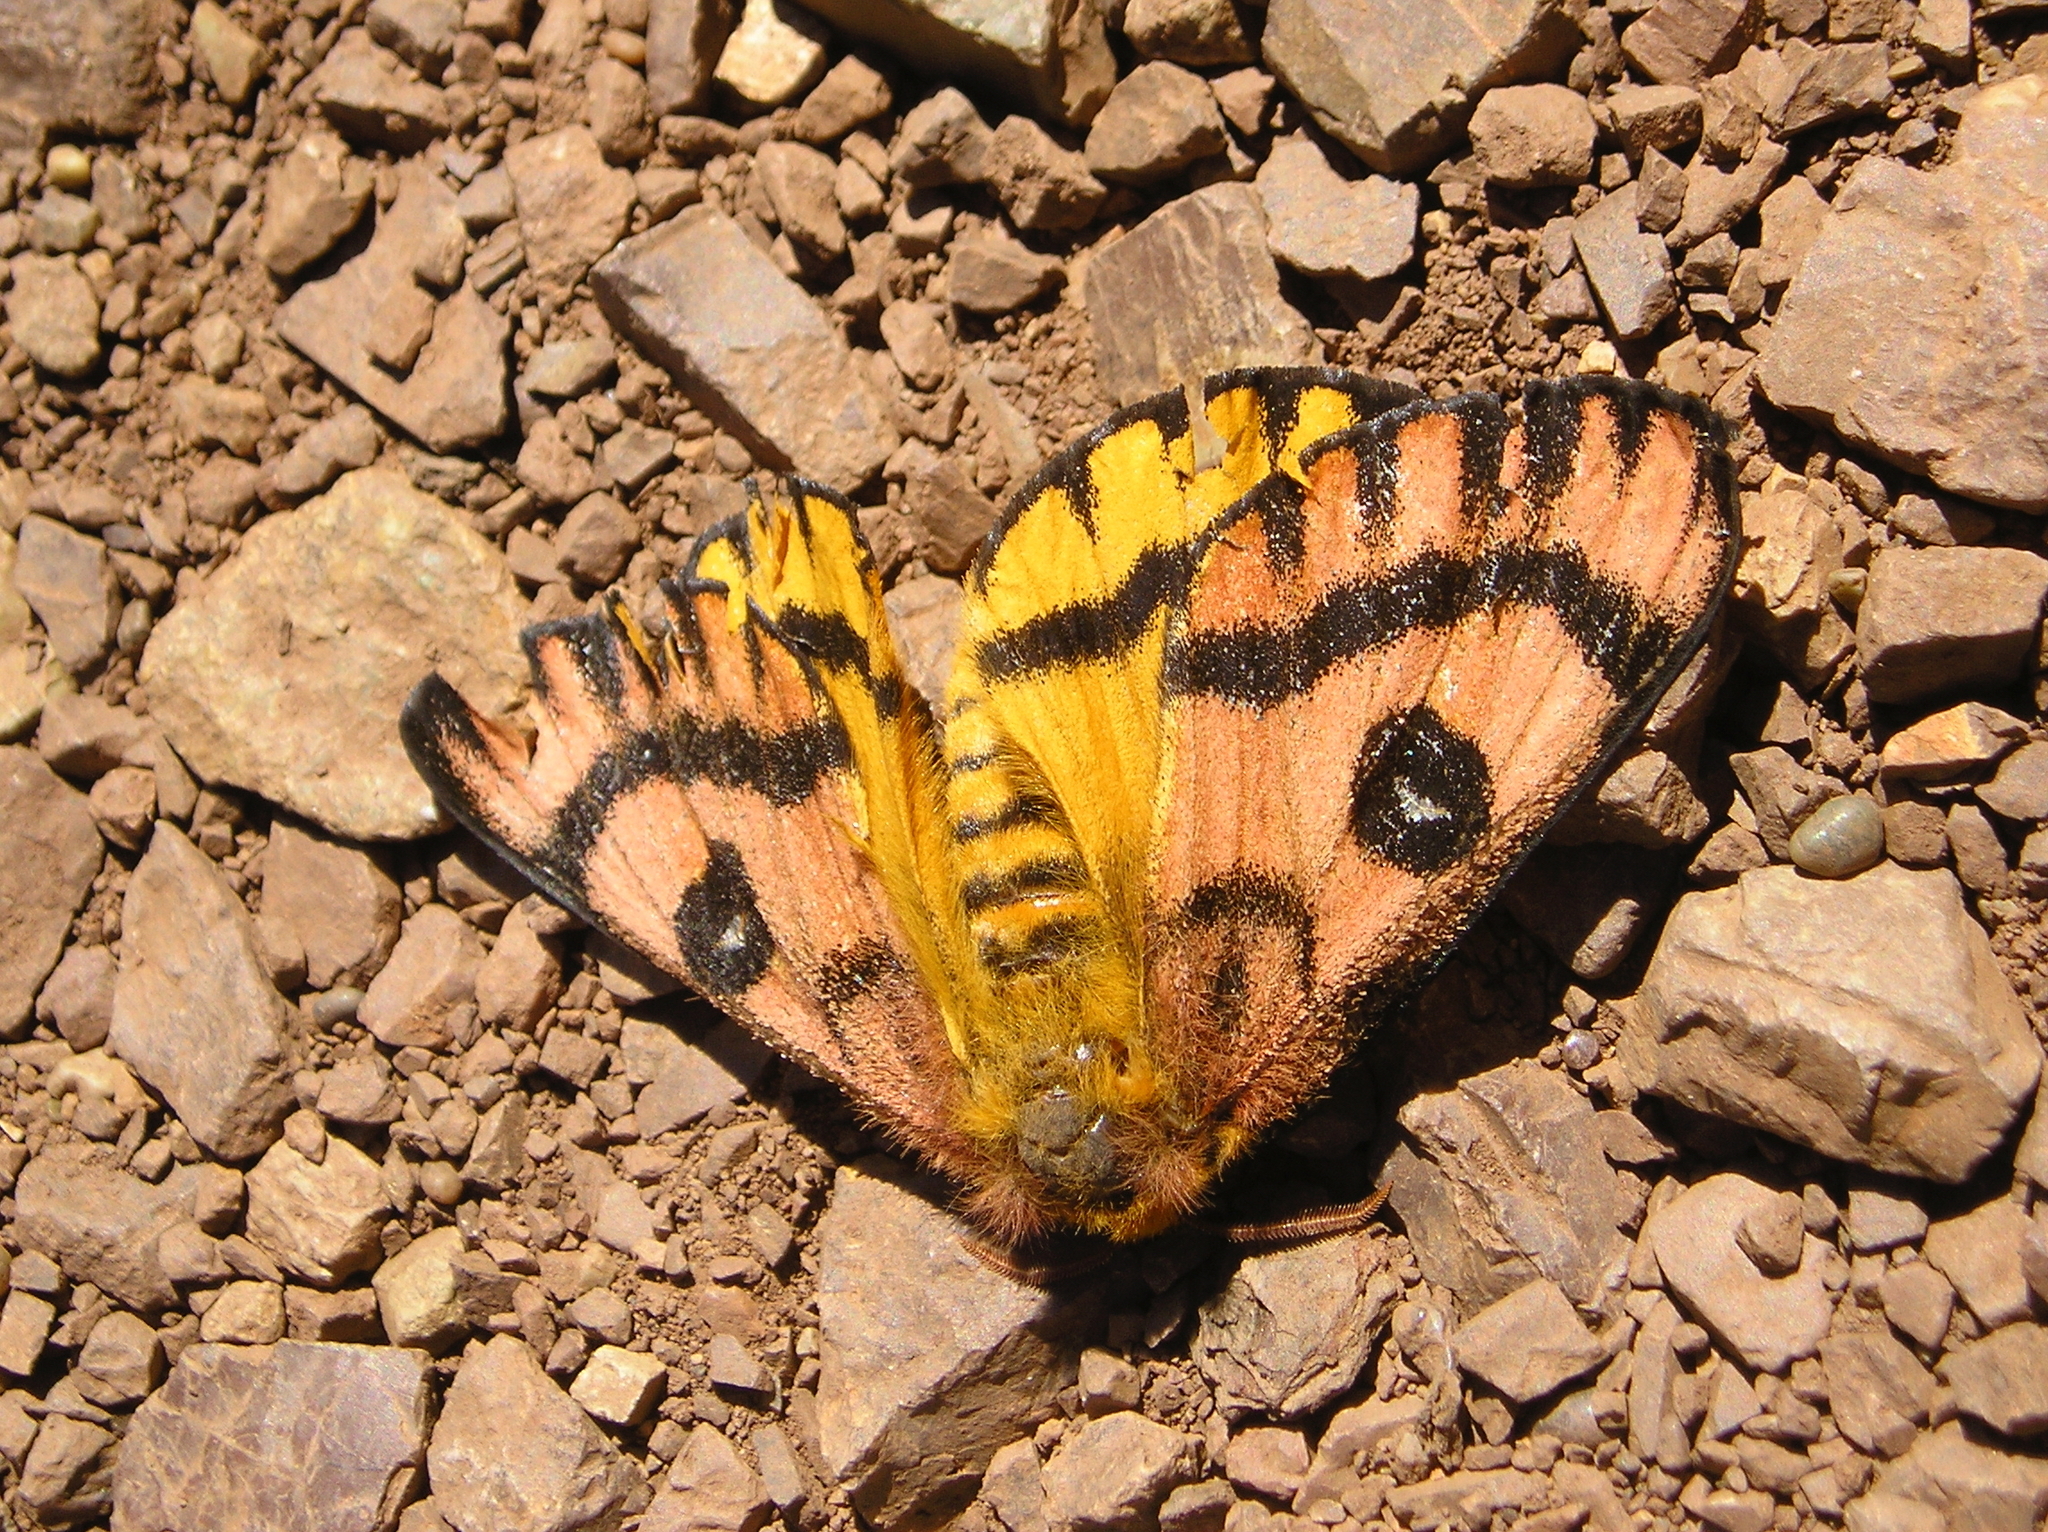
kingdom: Animalia
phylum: Arthropoda
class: Insecta
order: Lepidoptera
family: Saturniidae
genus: Hemileuca
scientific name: Hemileuca eglanterina
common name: Western sheepmoth
